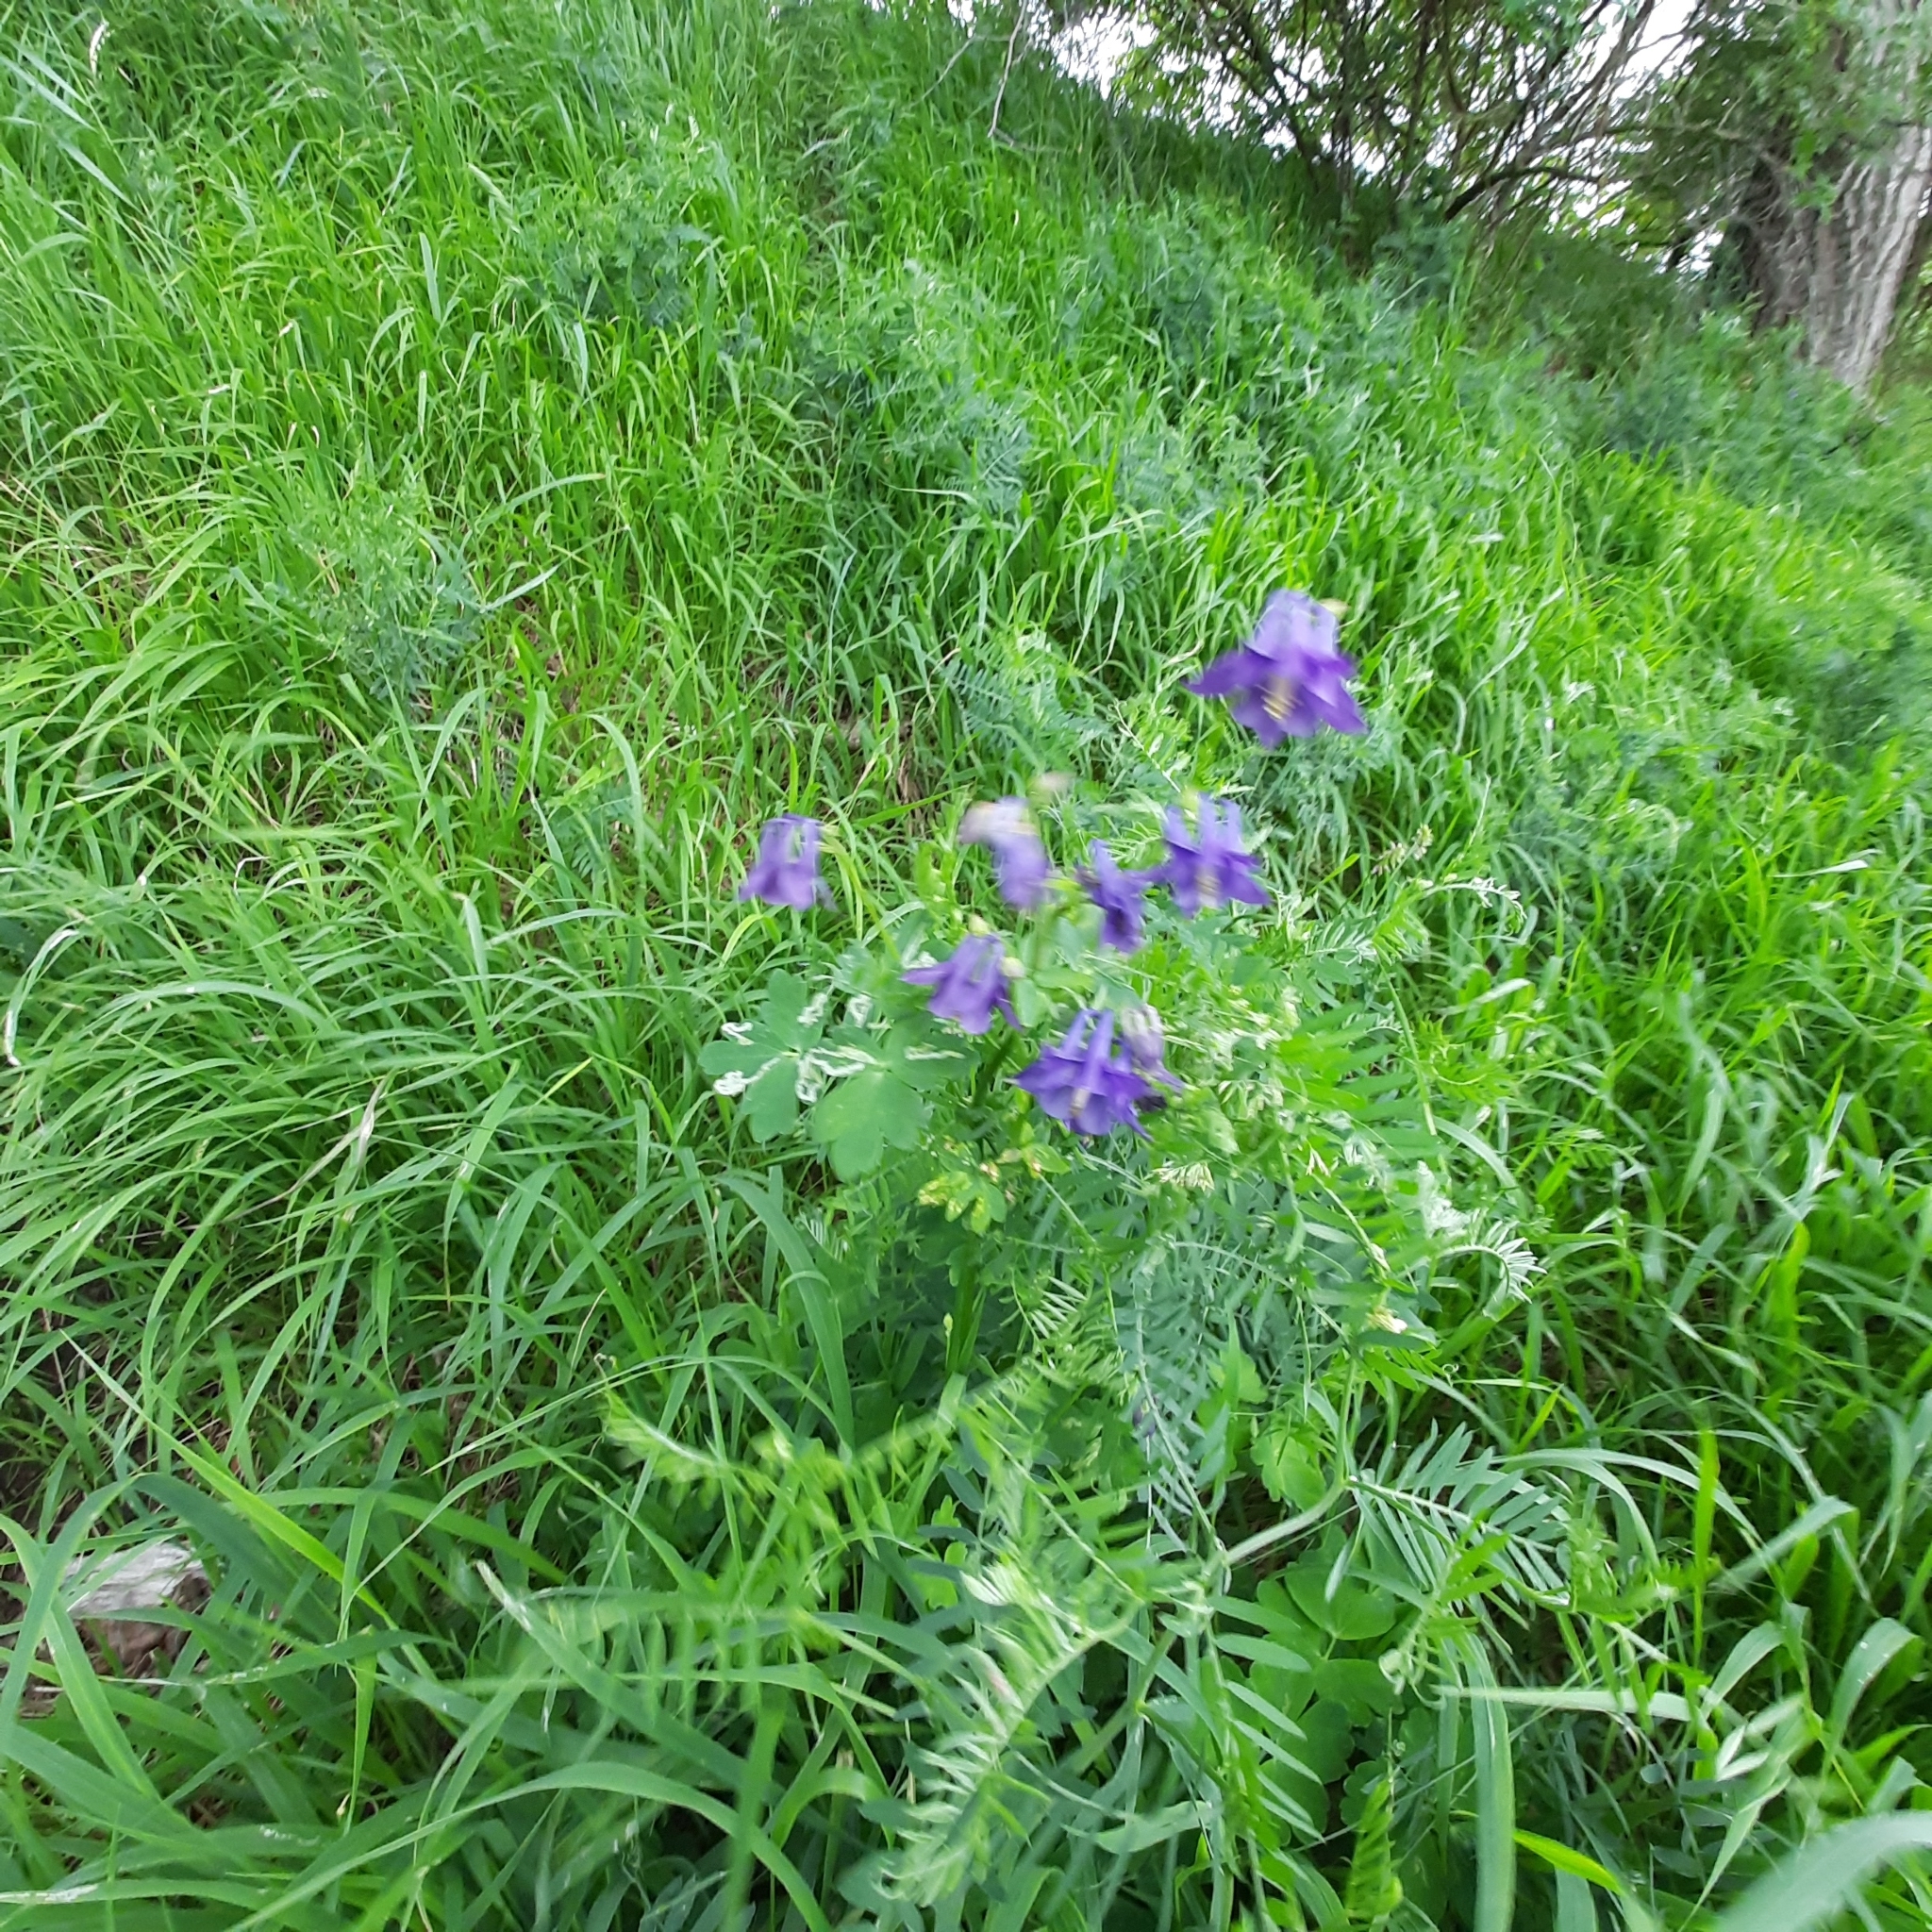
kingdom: Plantae
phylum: Tracheophyta
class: Magnoliopsida
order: Ranunculales
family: Ranunculaceae
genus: Aquilegia
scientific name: Aquilegia vulgaris
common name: Columbine
